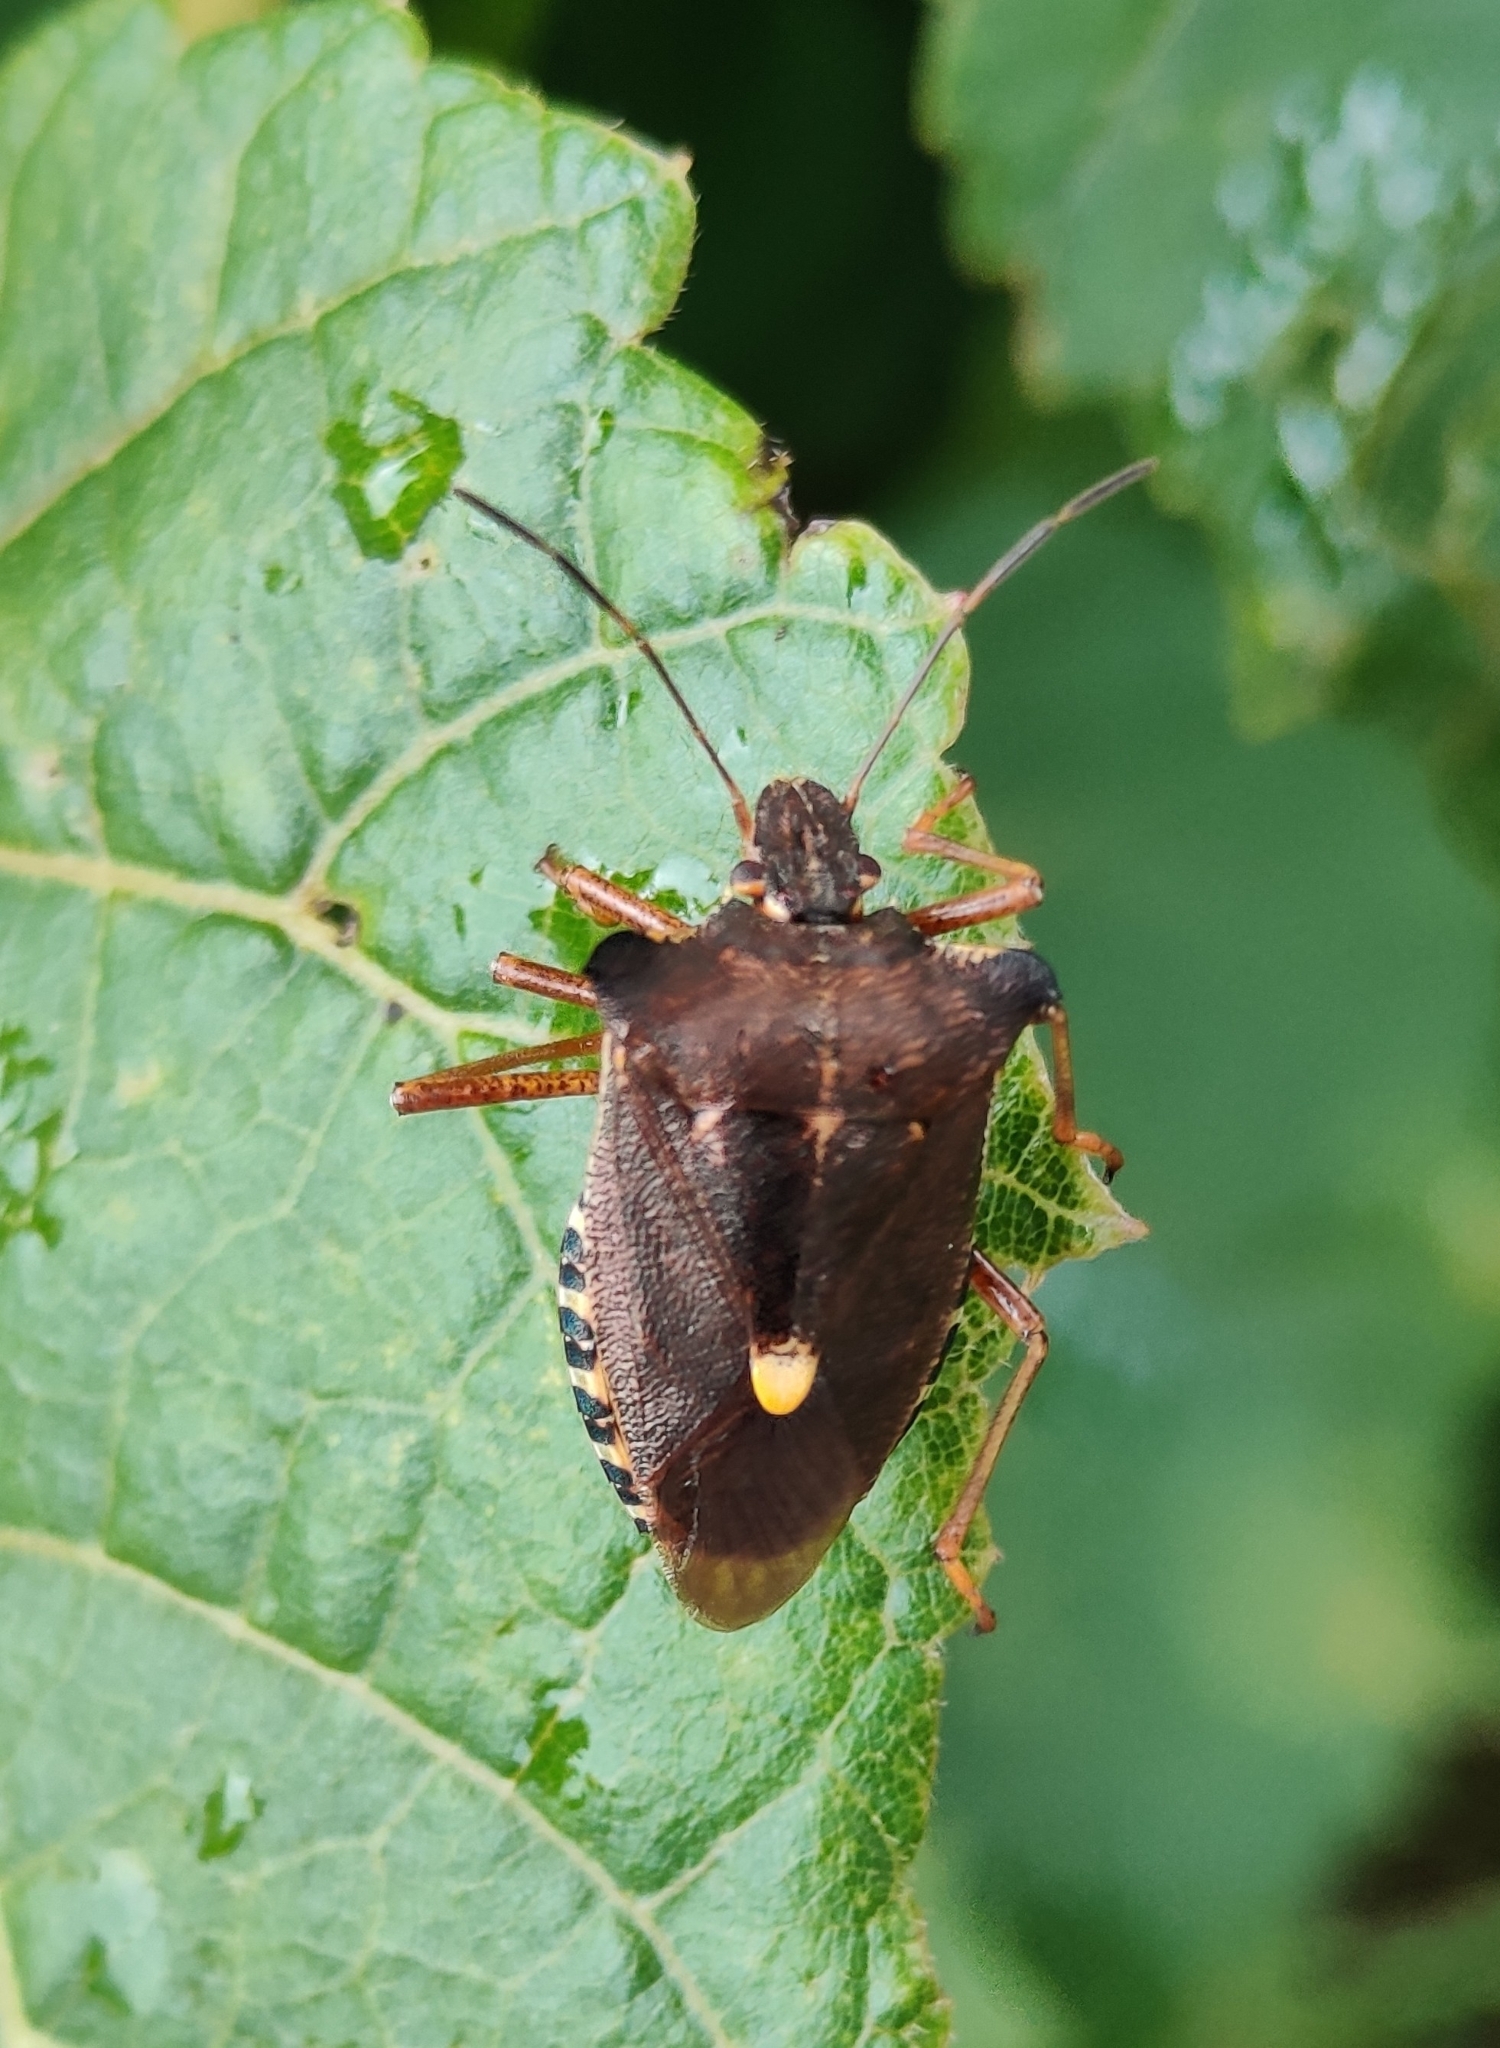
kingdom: Animalia
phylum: Arthropoda
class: Insecta
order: Hemiptera
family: Pentatomidae
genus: Pentatoma
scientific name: Pentatoma rufipes
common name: Forest bug
